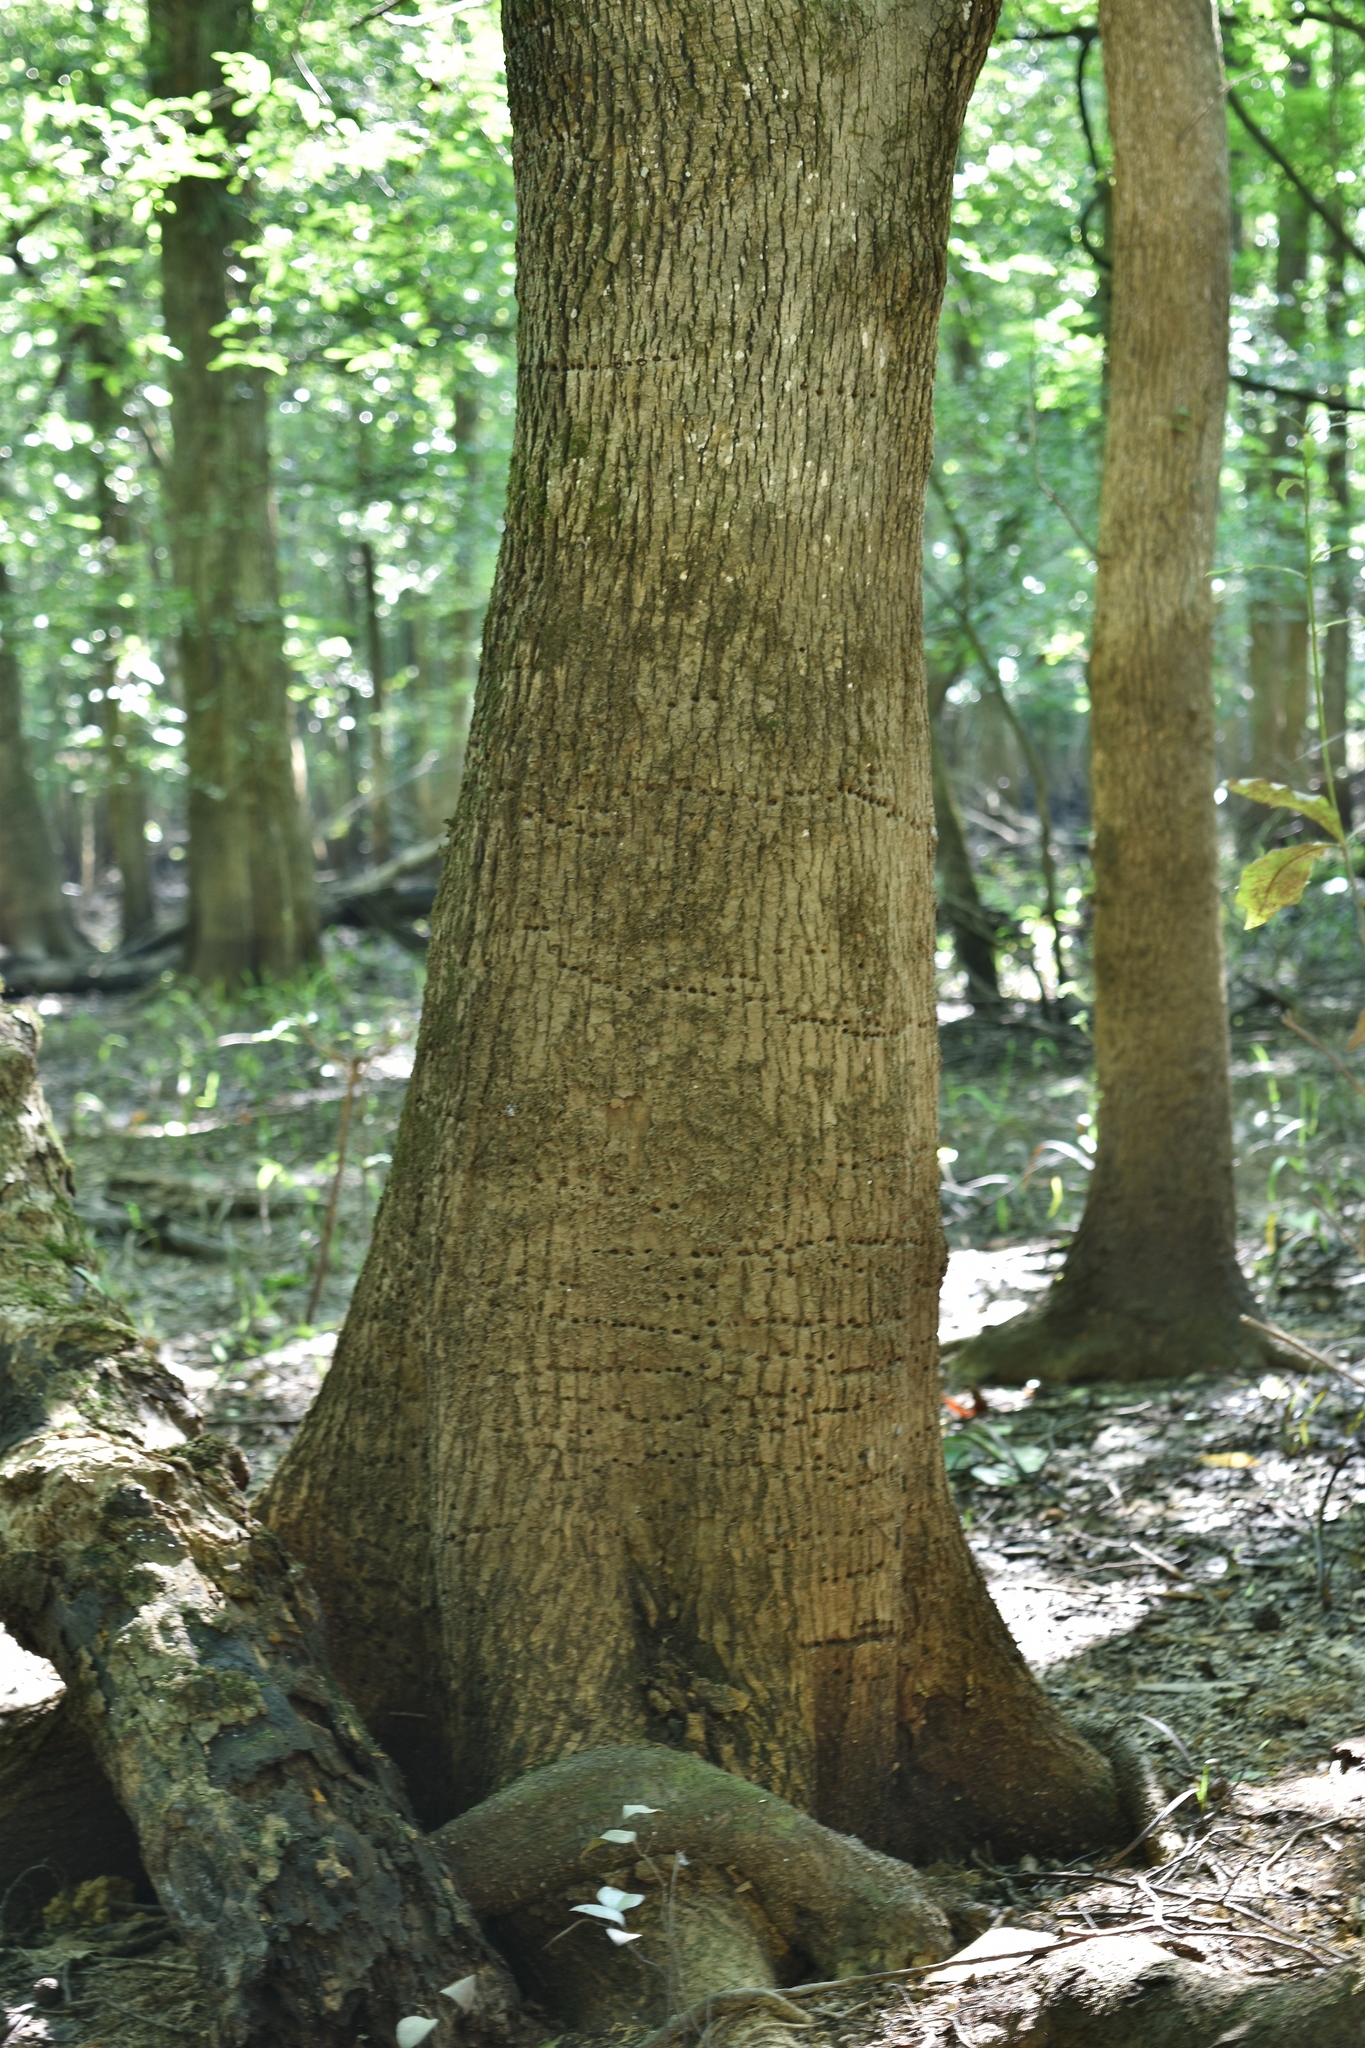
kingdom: Animalia
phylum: Chordata
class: Aves
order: Piciformes
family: Picidae
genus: Sphyrapicus
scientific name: Sphyrapicus varius
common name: Yellow-bellied sapsucker
